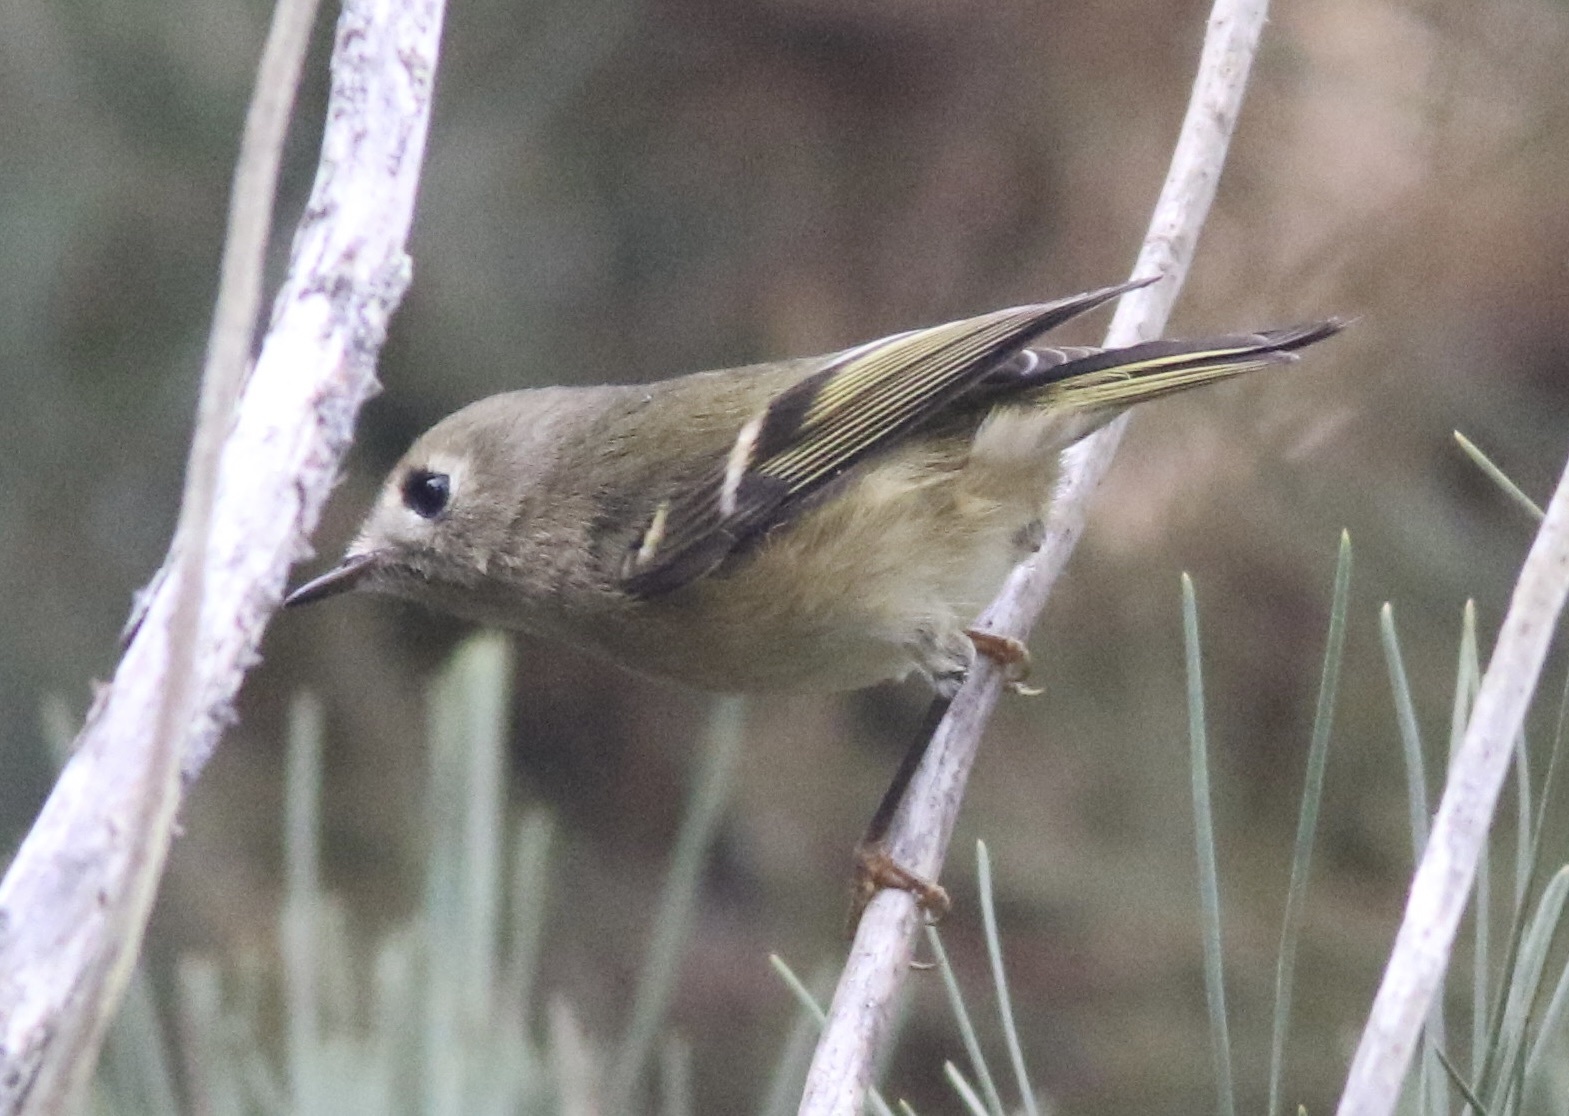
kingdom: Animalia
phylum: Chordata
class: Aves
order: Passeriformes
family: Regulidae
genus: Regulus
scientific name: Regulus calendula
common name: Ruby-crowned kinglet
